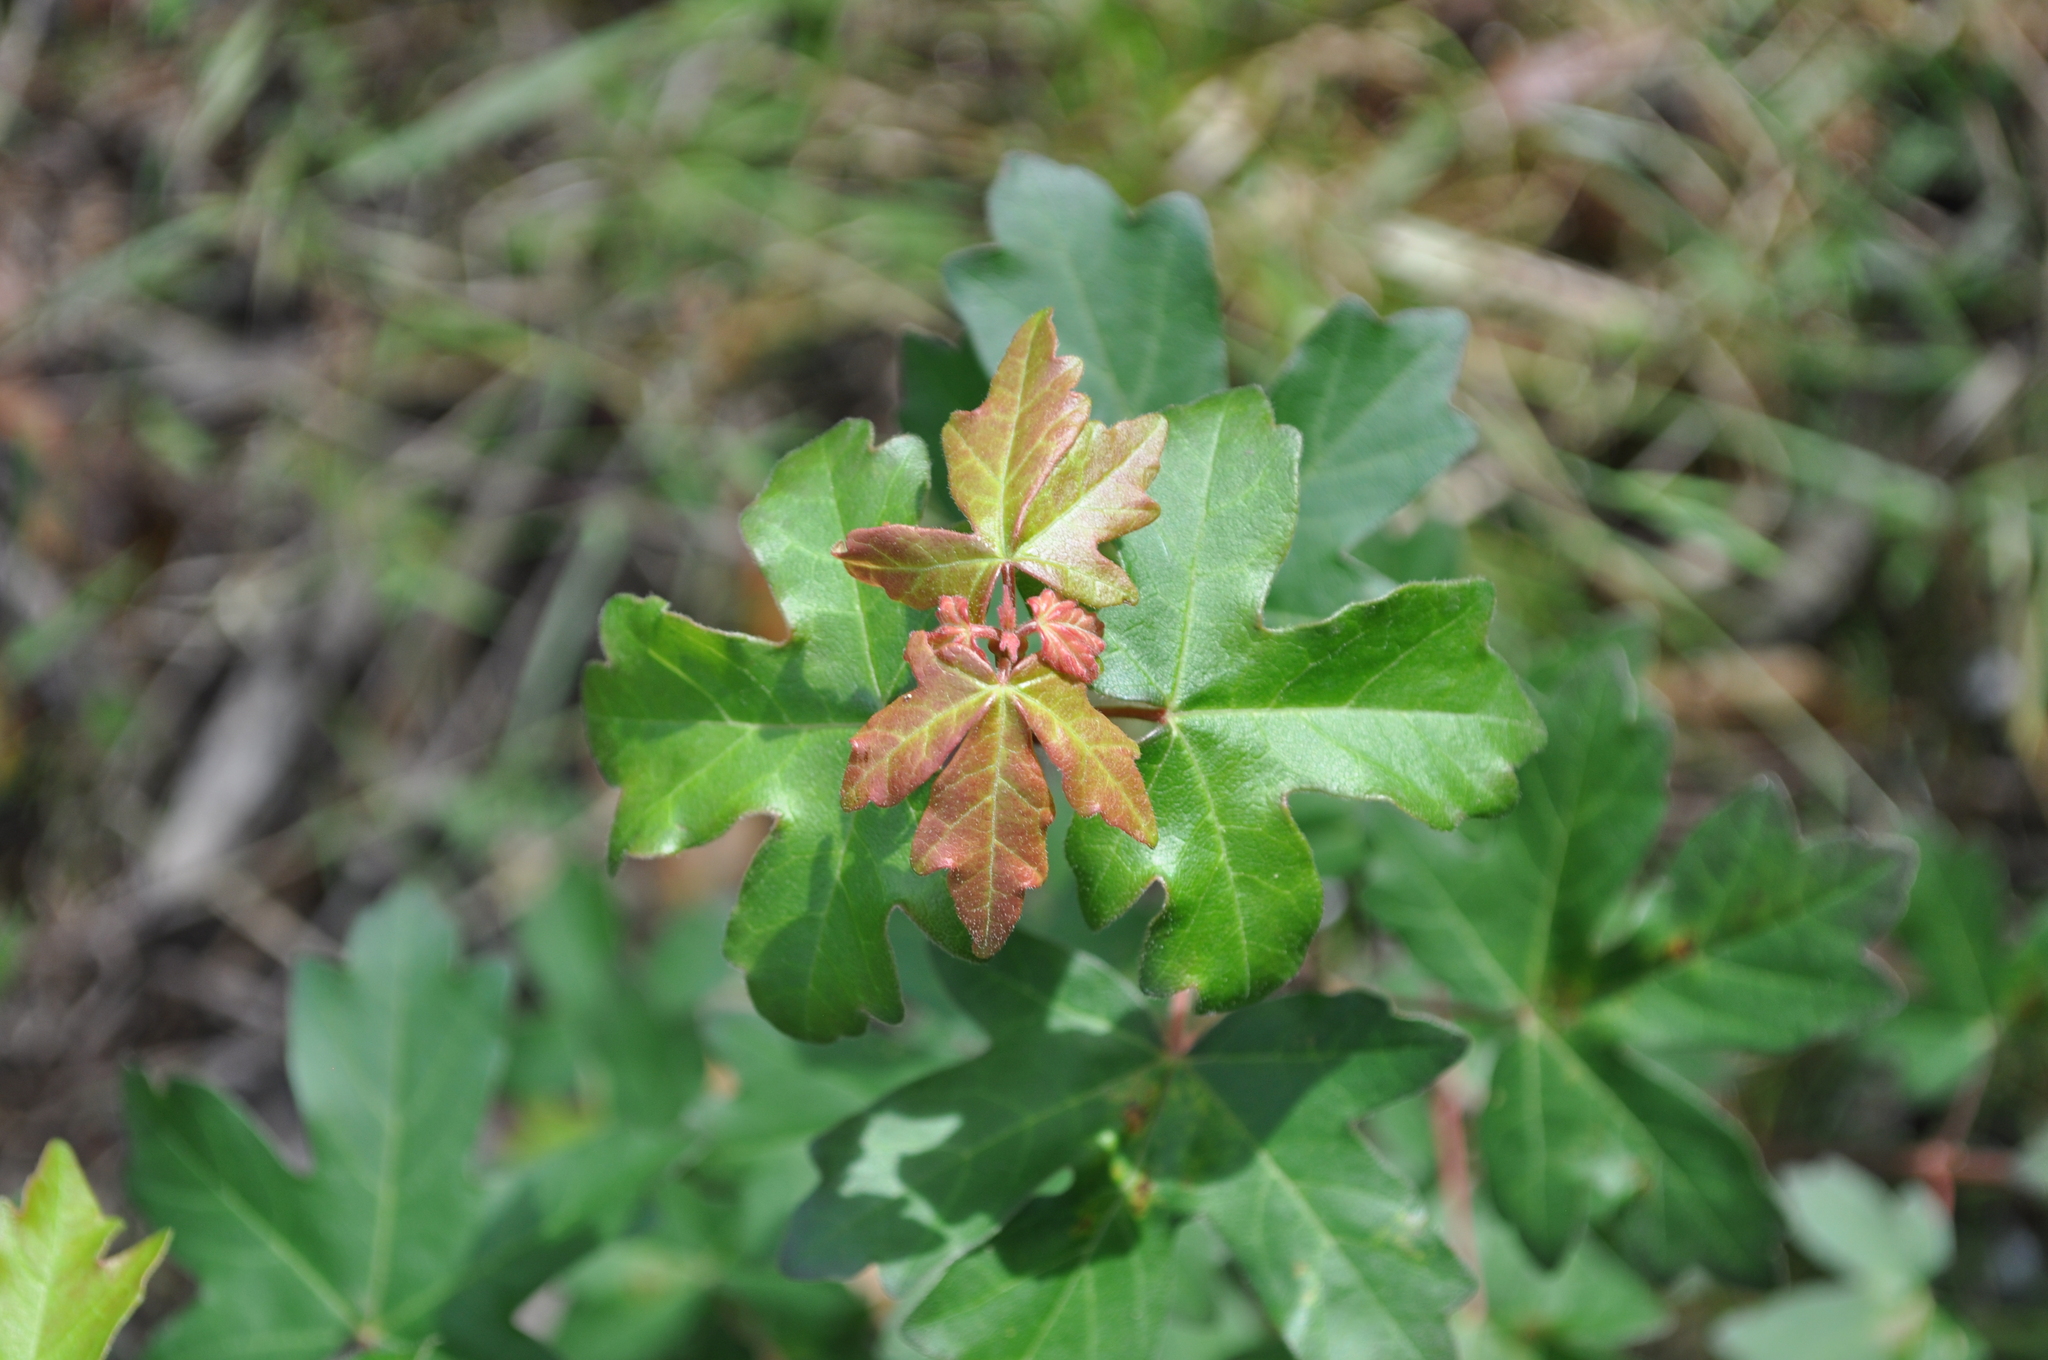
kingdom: Plantae
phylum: Tracheophyta
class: Magnoliopsida
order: Sapindales
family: Sapindaceae
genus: Acer
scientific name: Acer campestre
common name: Field maple
